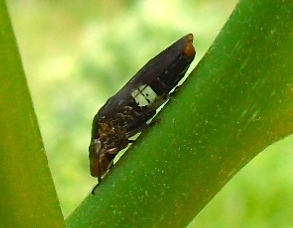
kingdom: Animalia
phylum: Arthropoda
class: Insecta
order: Hemiptera
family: Cicadellidae
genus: Homalodisca
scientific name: Homalodisca ichthyocephala
